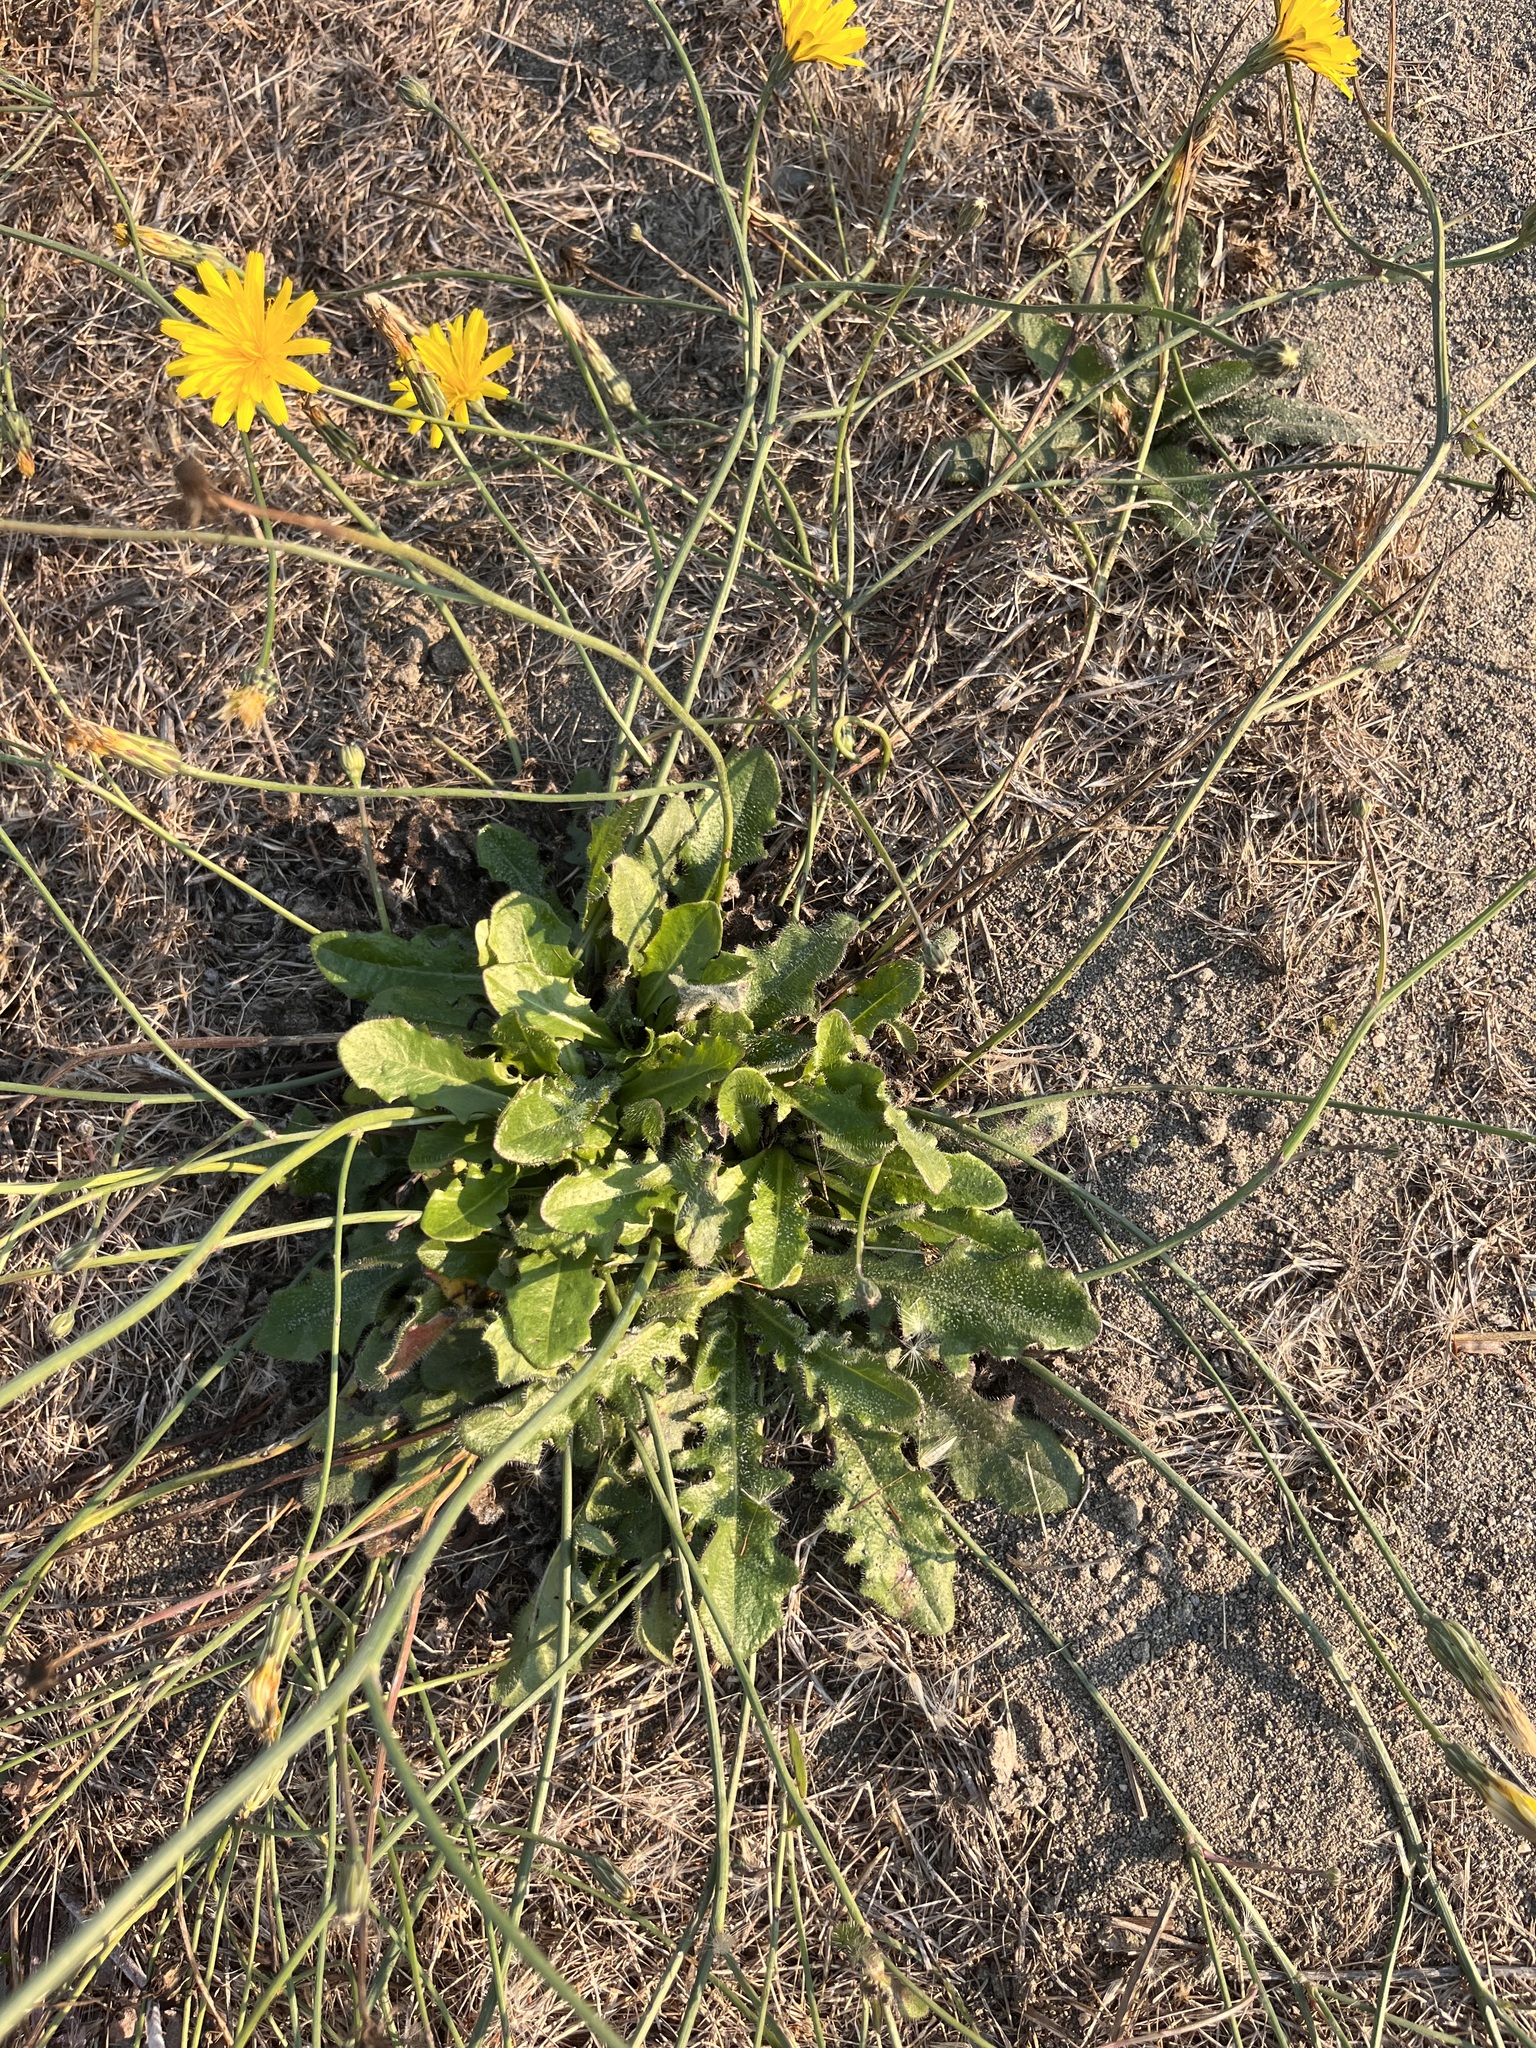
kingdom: Plantae
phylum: Tracheophyta
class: Magnoliopsida
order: Asterales
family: Asteraceae
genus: Hypochaeris
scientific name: Hypochaeris radicata
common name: Flatweed
